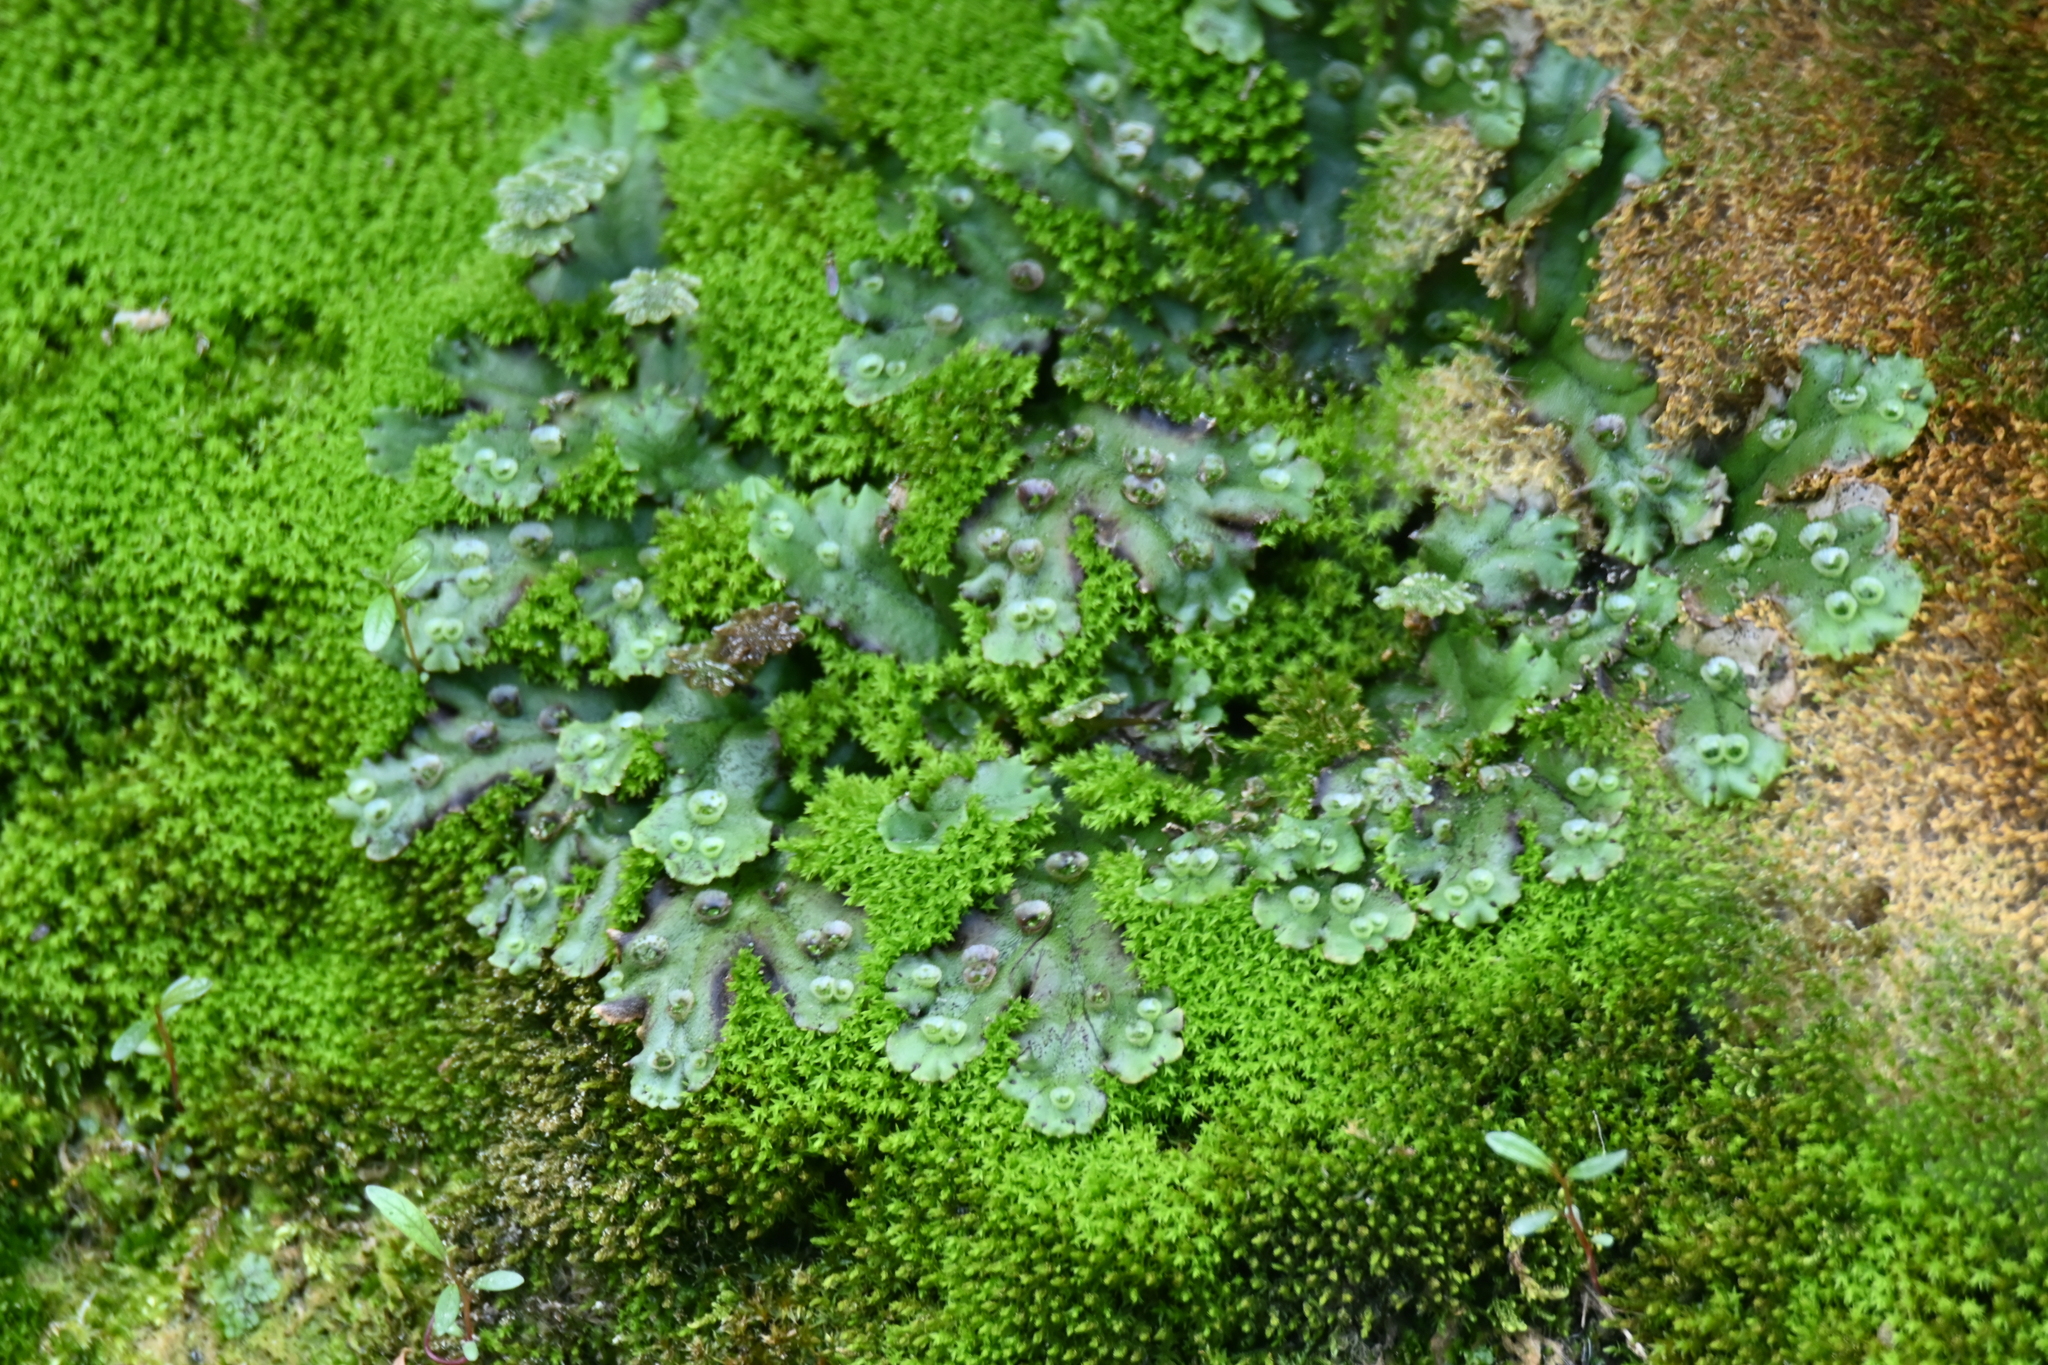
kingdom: Plantae
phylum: Marchantiophyta
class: Marchantiopsida
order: Marchantiales
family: Marchantiaceae
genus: Marchantia
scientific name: Marchantia polymorpha
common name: Common liverwort
